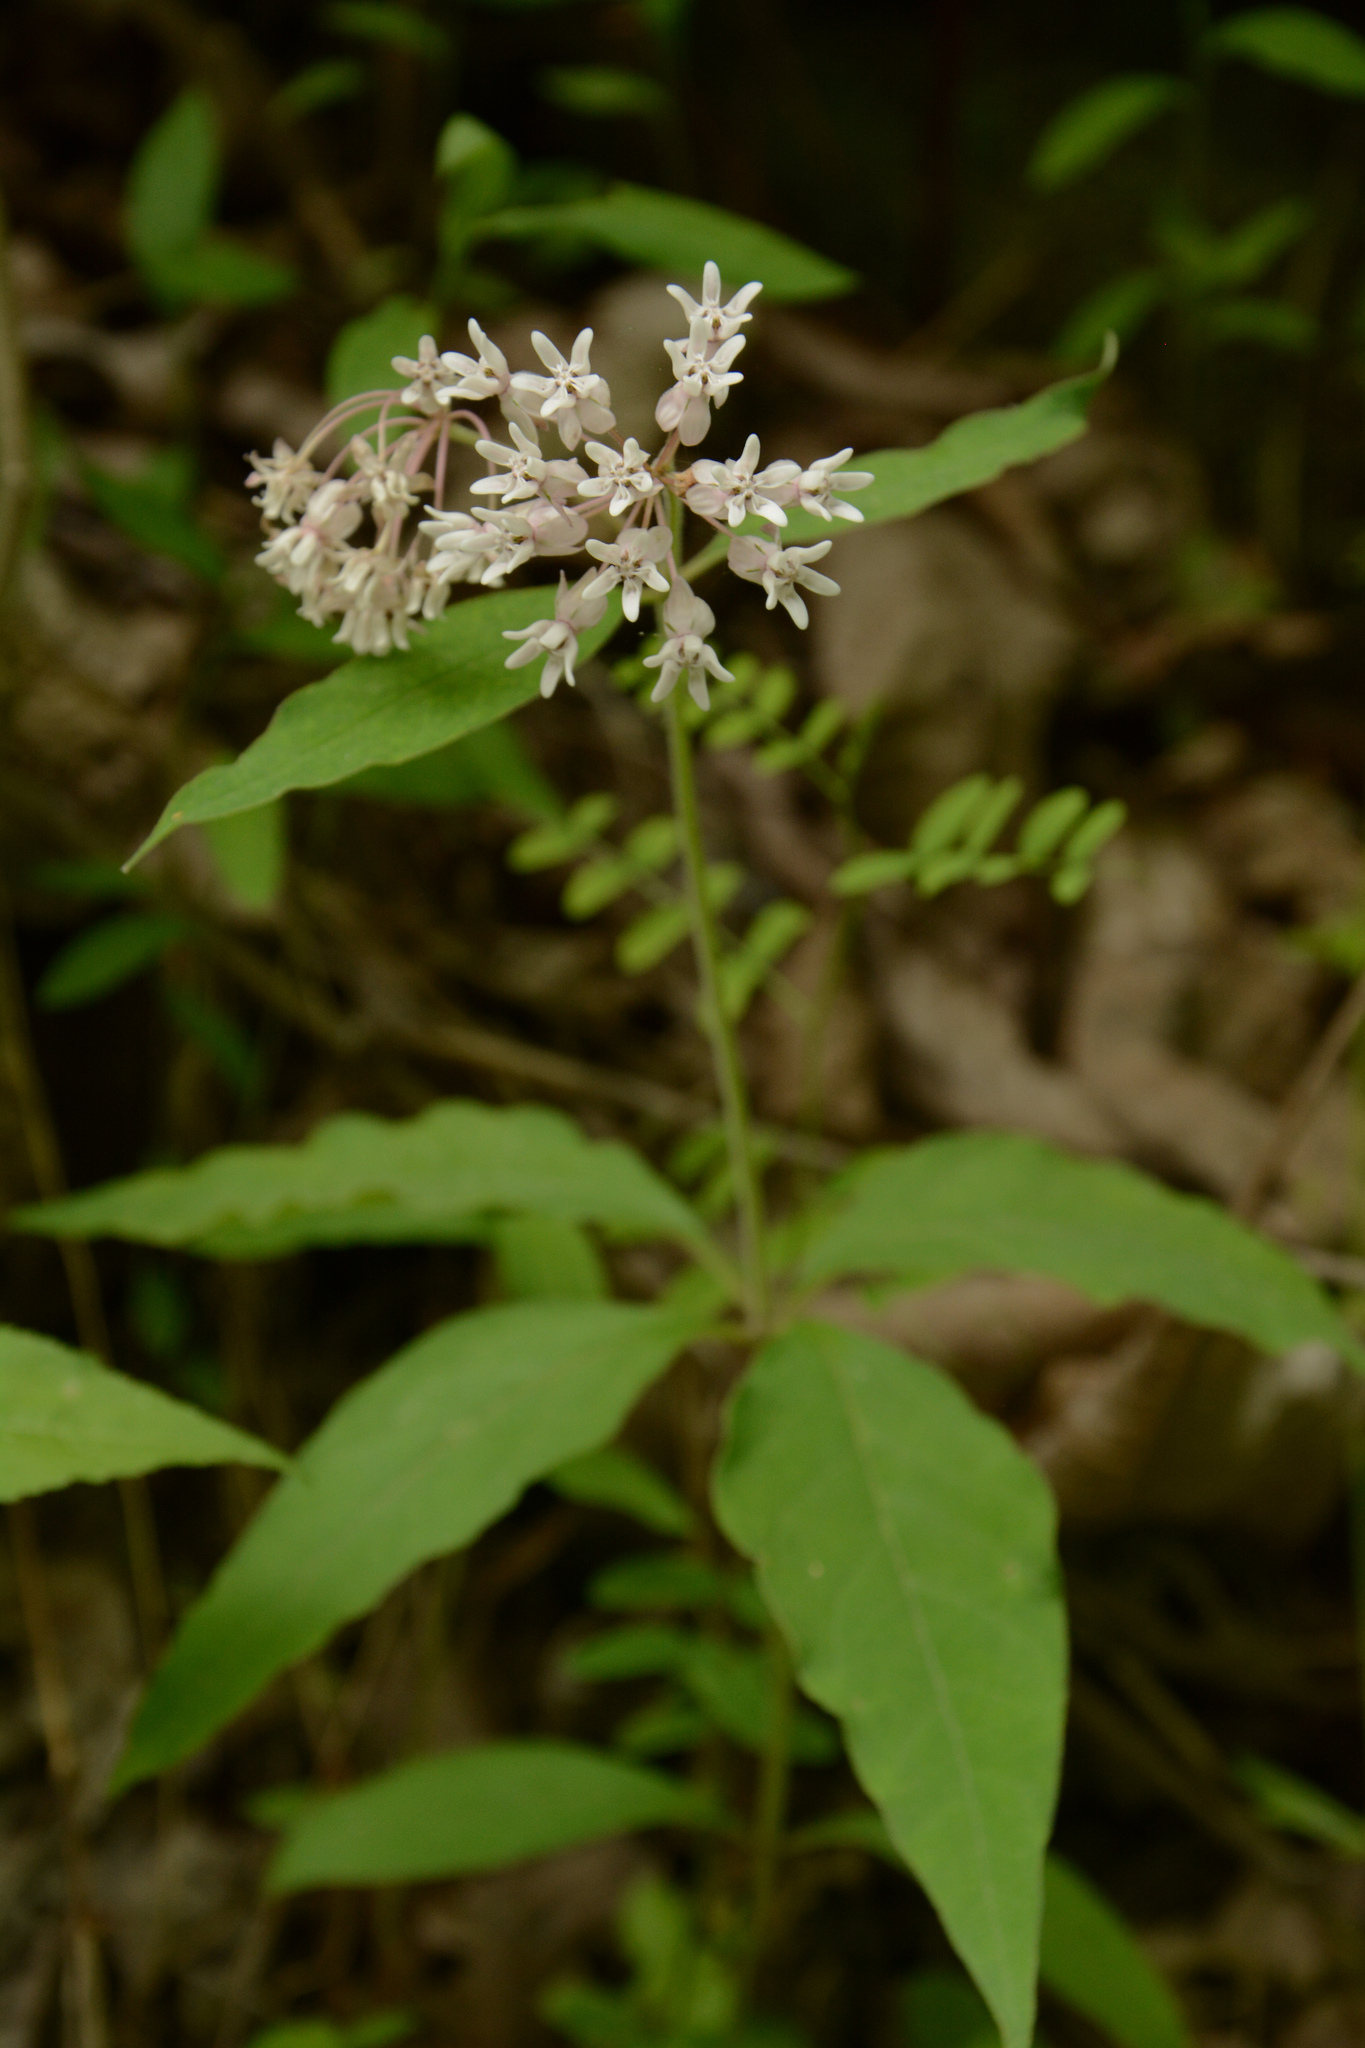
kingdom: Plantae
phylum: Tracheophyta
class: Magnoliopsida
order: Gentianales
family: Apocynaceae
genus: Asclepias
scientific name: Asclepias quadrifolia
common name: Whorled milkweed
